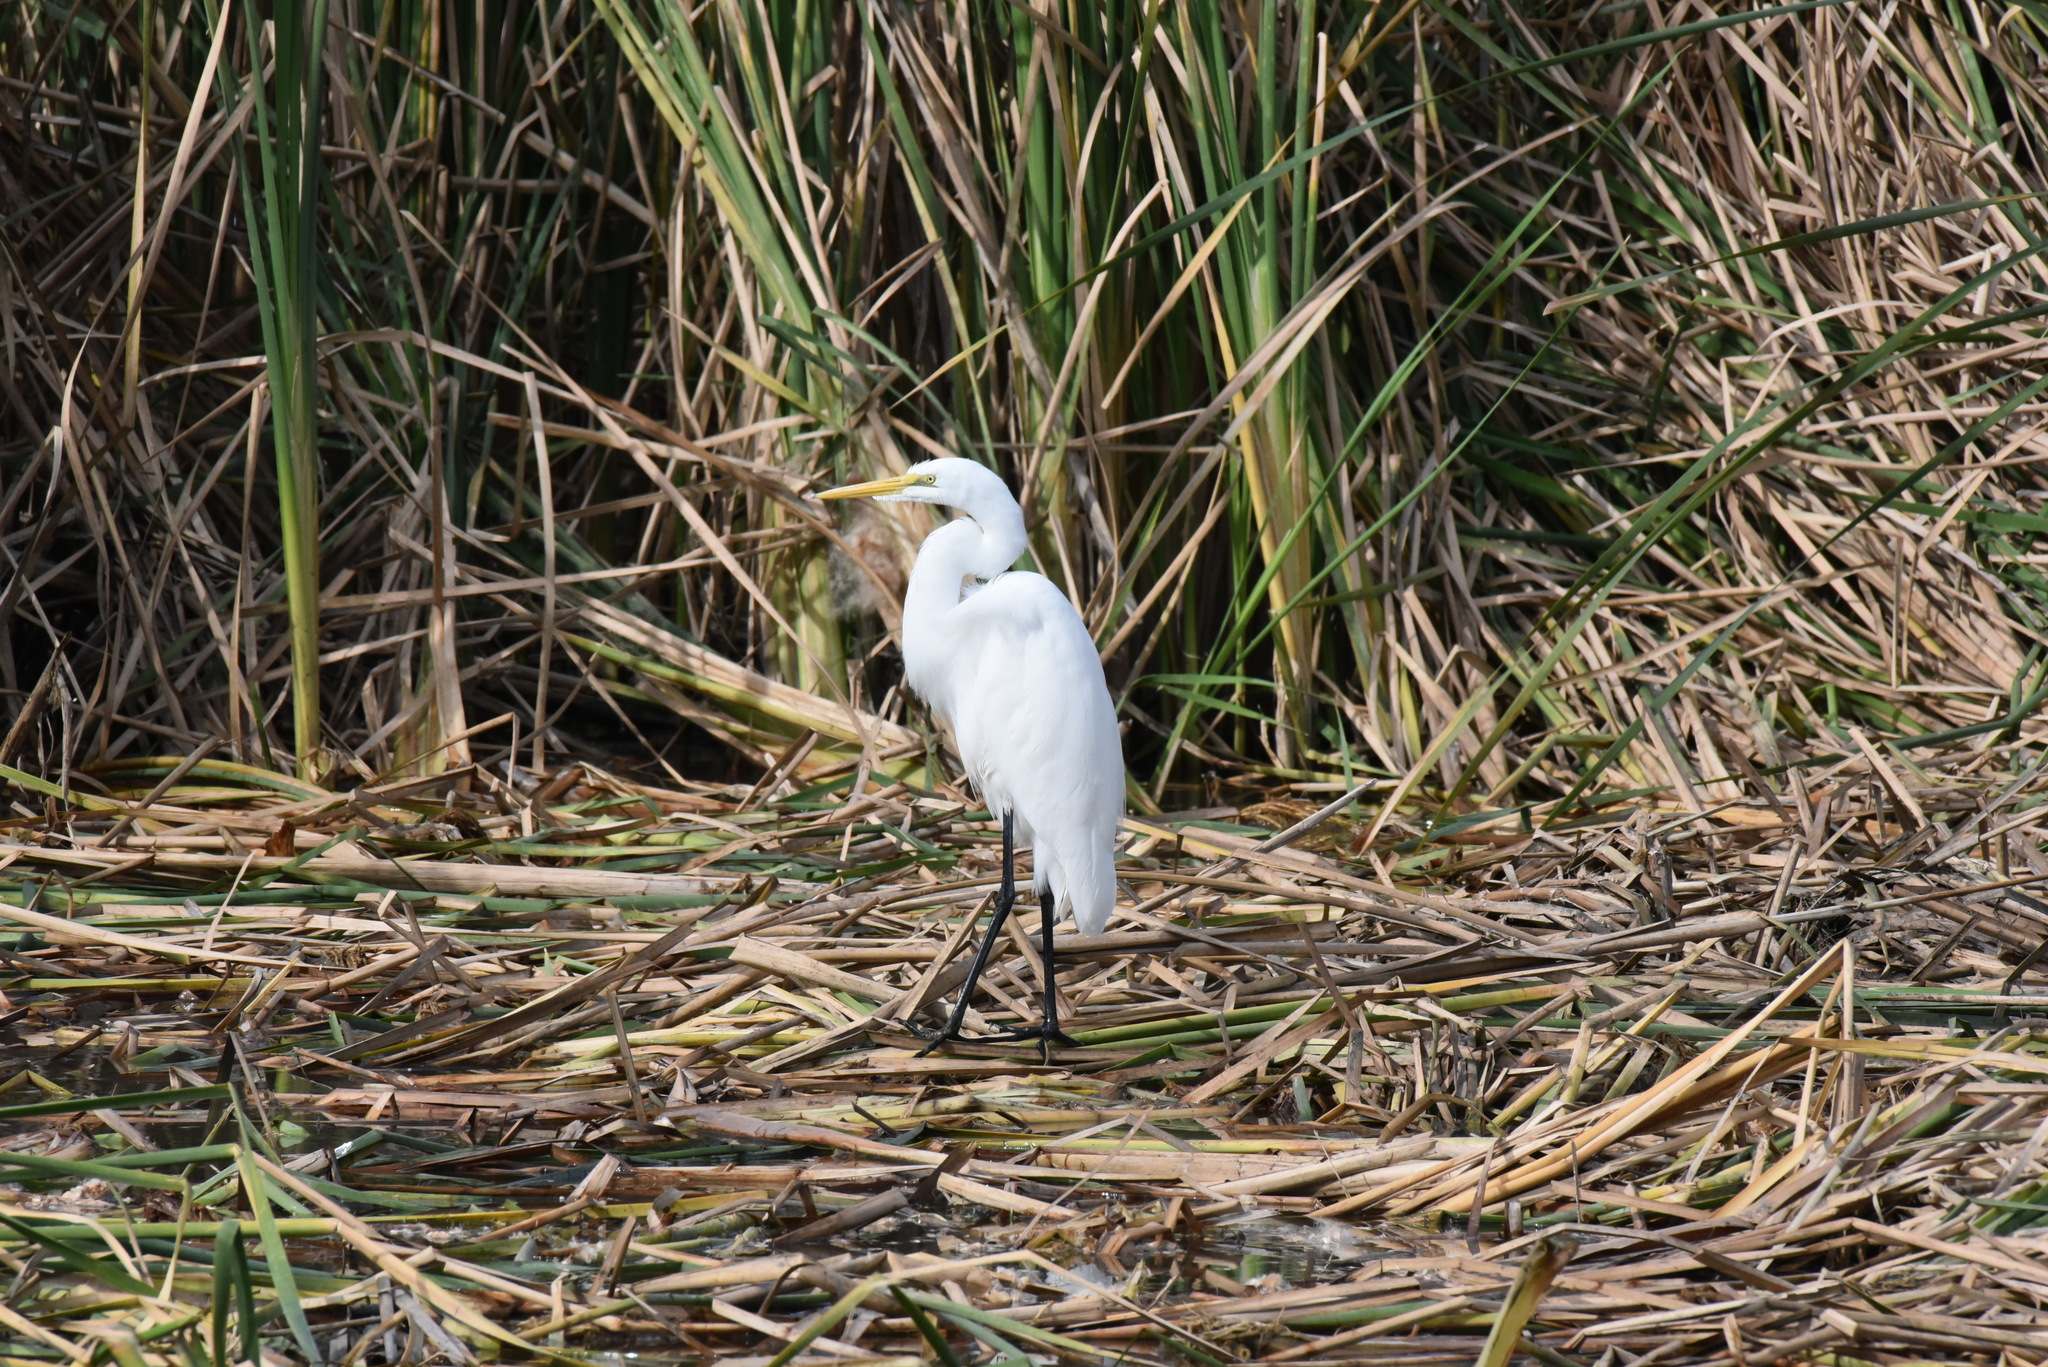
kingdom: Animalia
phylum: Chordata
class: Aves
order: Pelecaniformes
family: Ardeidae
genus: Ardea
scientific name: Ardea alba
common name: Great egret
